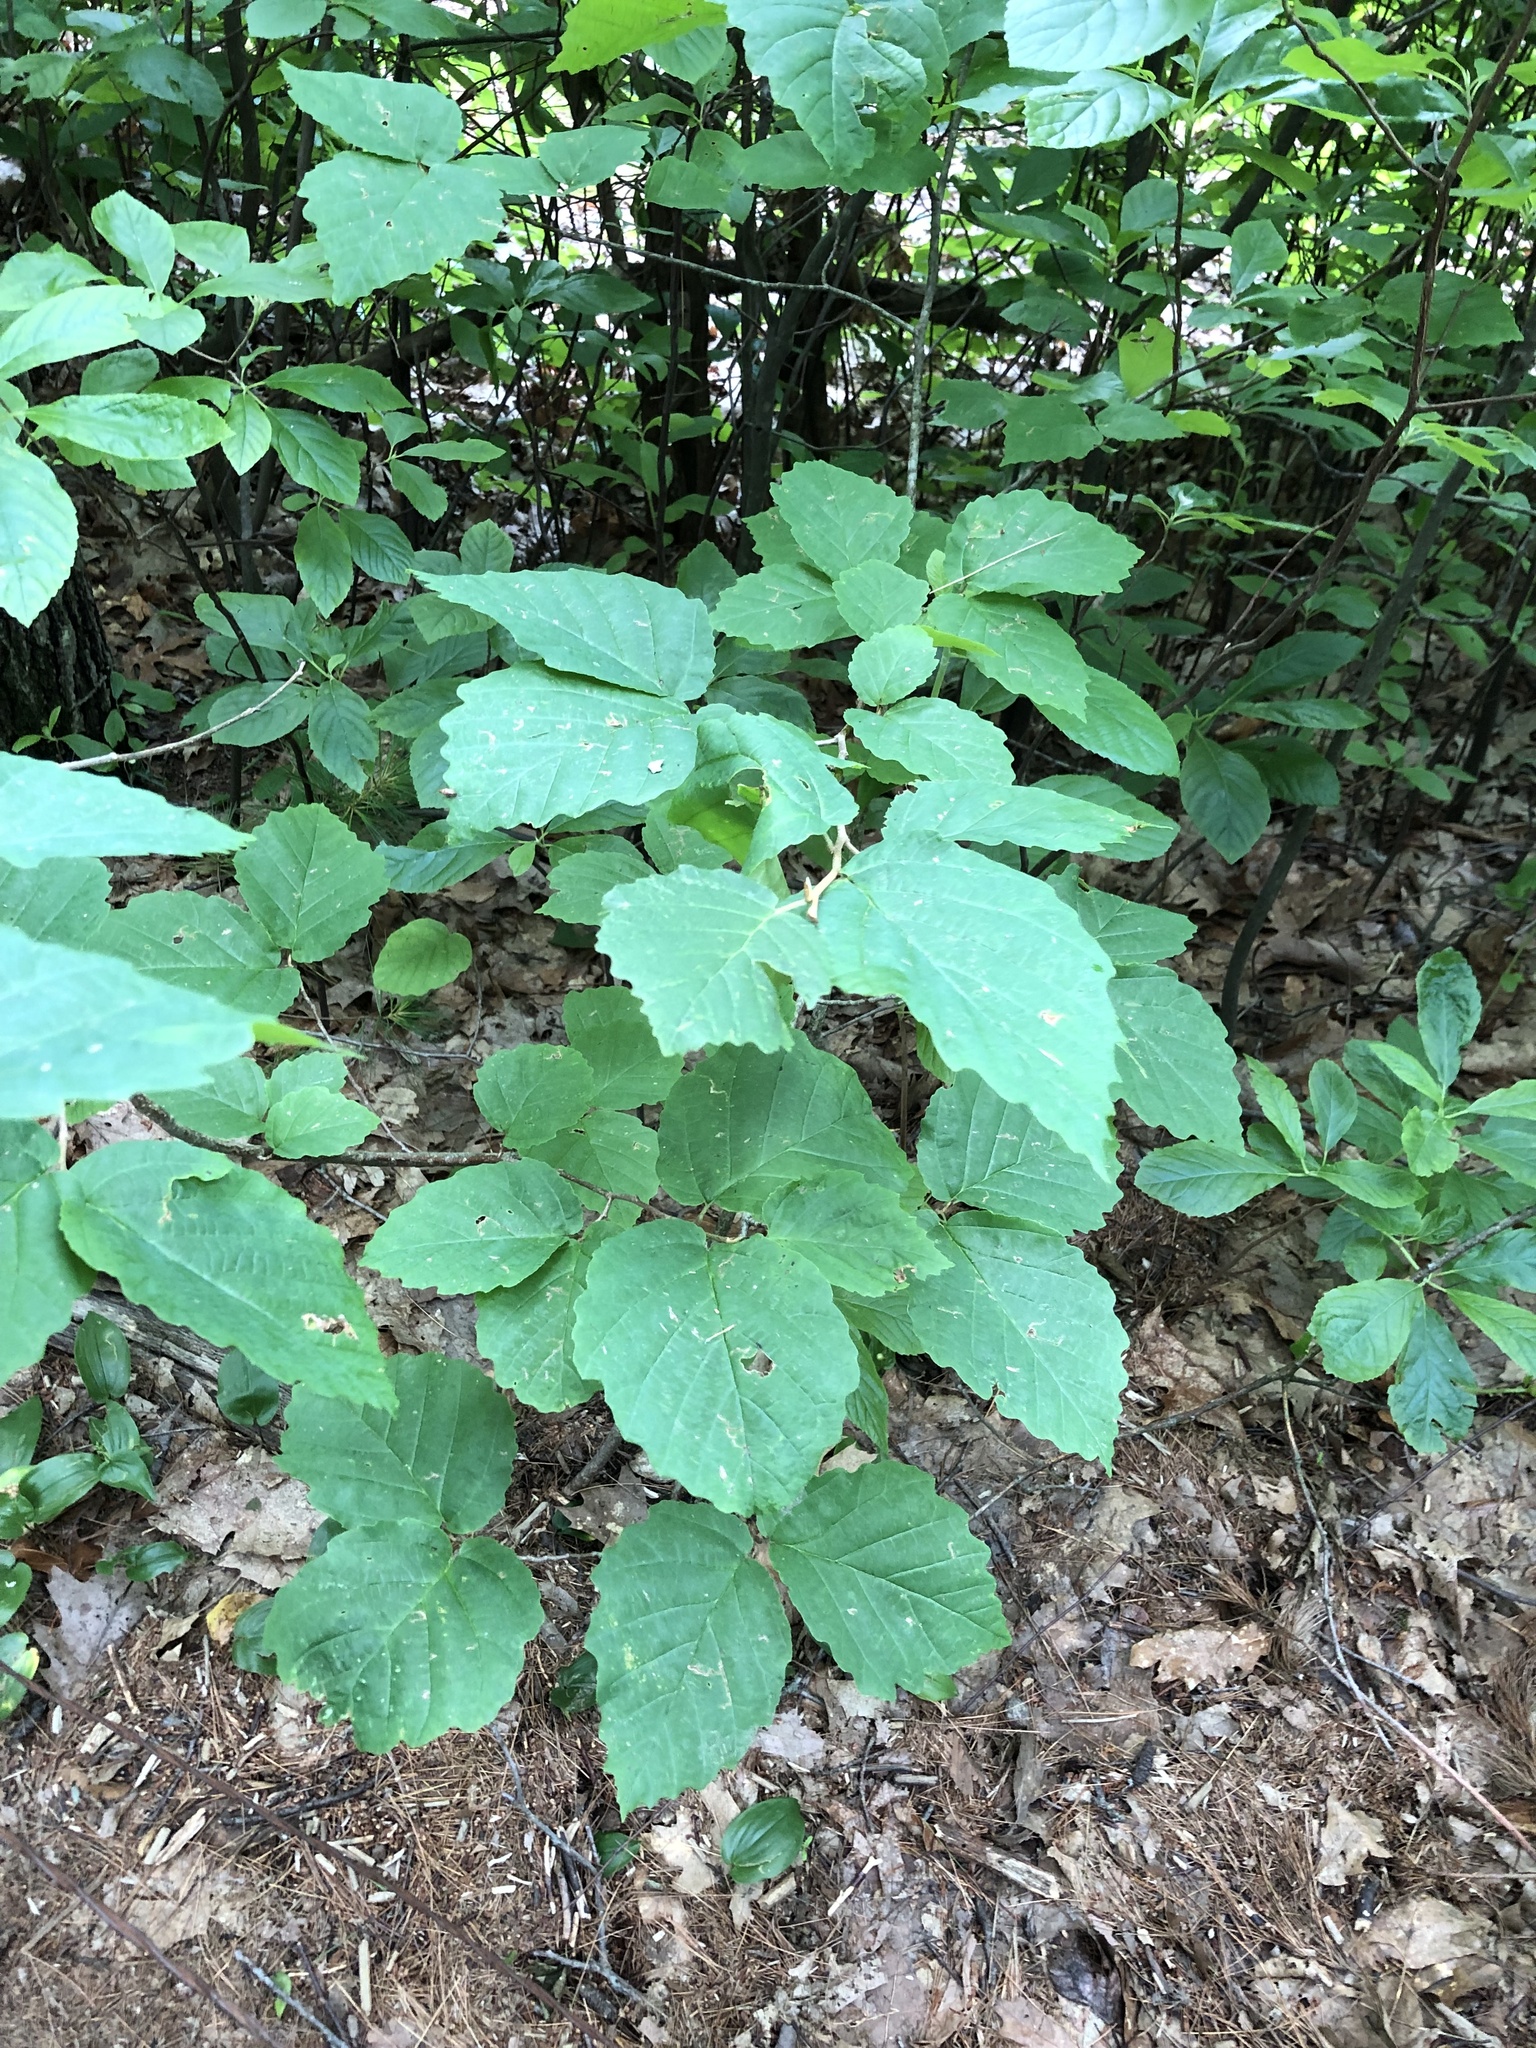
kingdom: Plantae
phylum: Tracheophyta
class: Magnoliopsida
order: Saxifragales
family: Hamamelidaceae
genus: Hamamelis
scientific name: Hamamelis virginiana
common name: Witch-hazel
